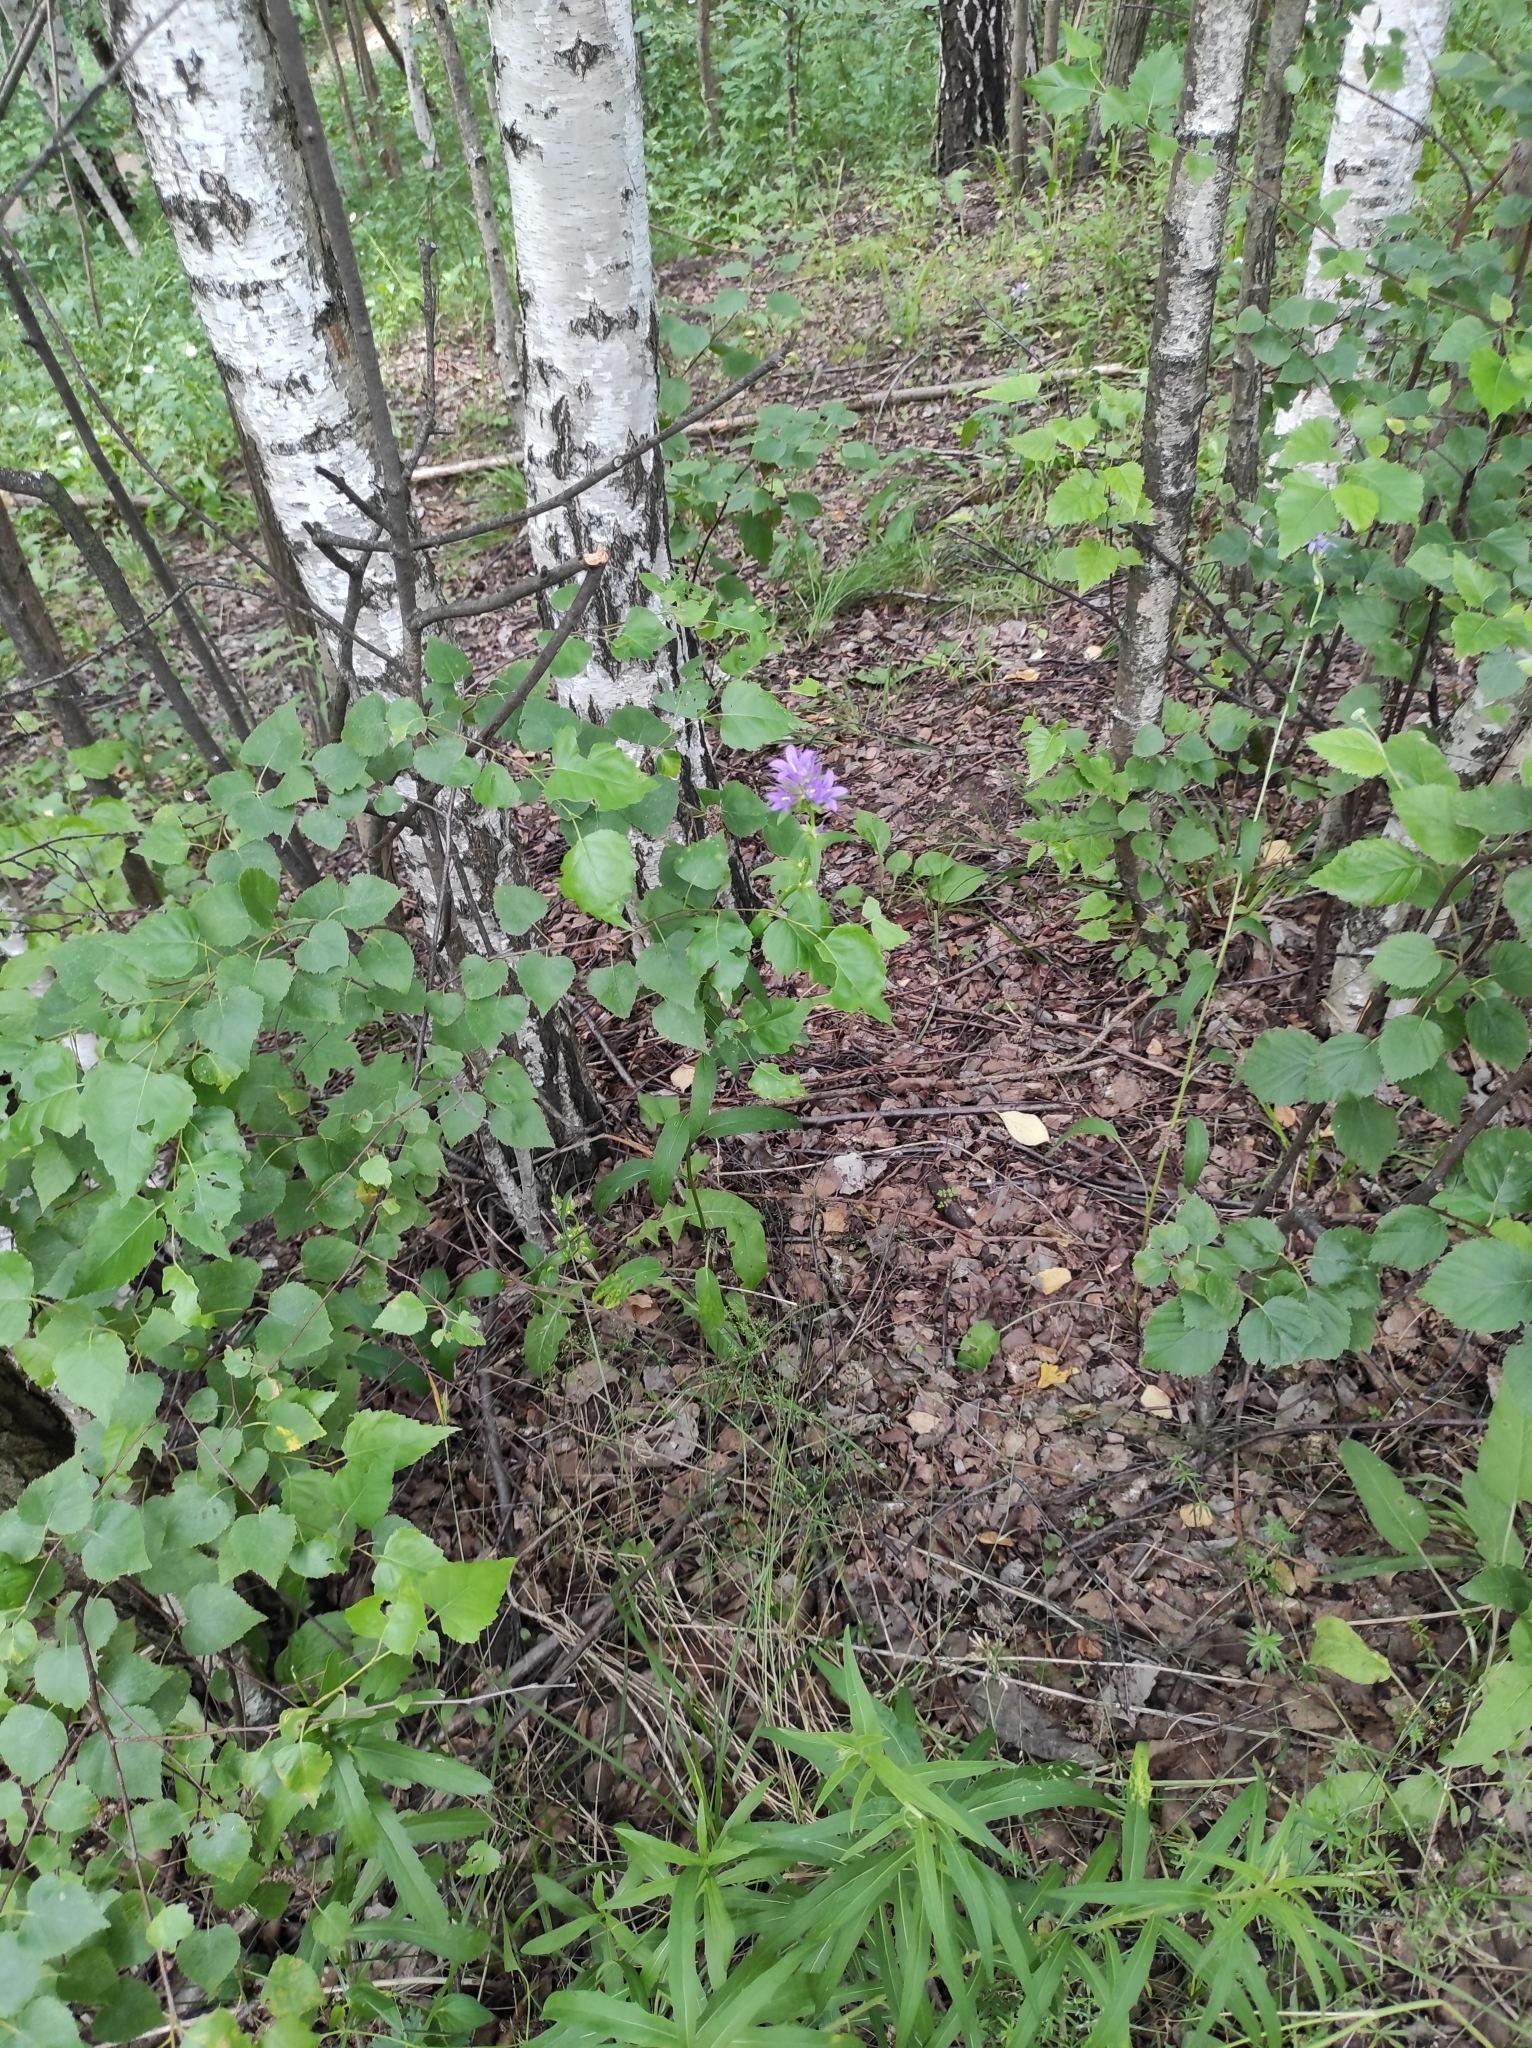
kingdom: Plantae
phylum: Tracheophyta
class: Magnoliopsida
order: Asterales
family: Campanulaceae
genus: Campanula
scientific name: Campanula glomerata
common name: Clustered bellflower
